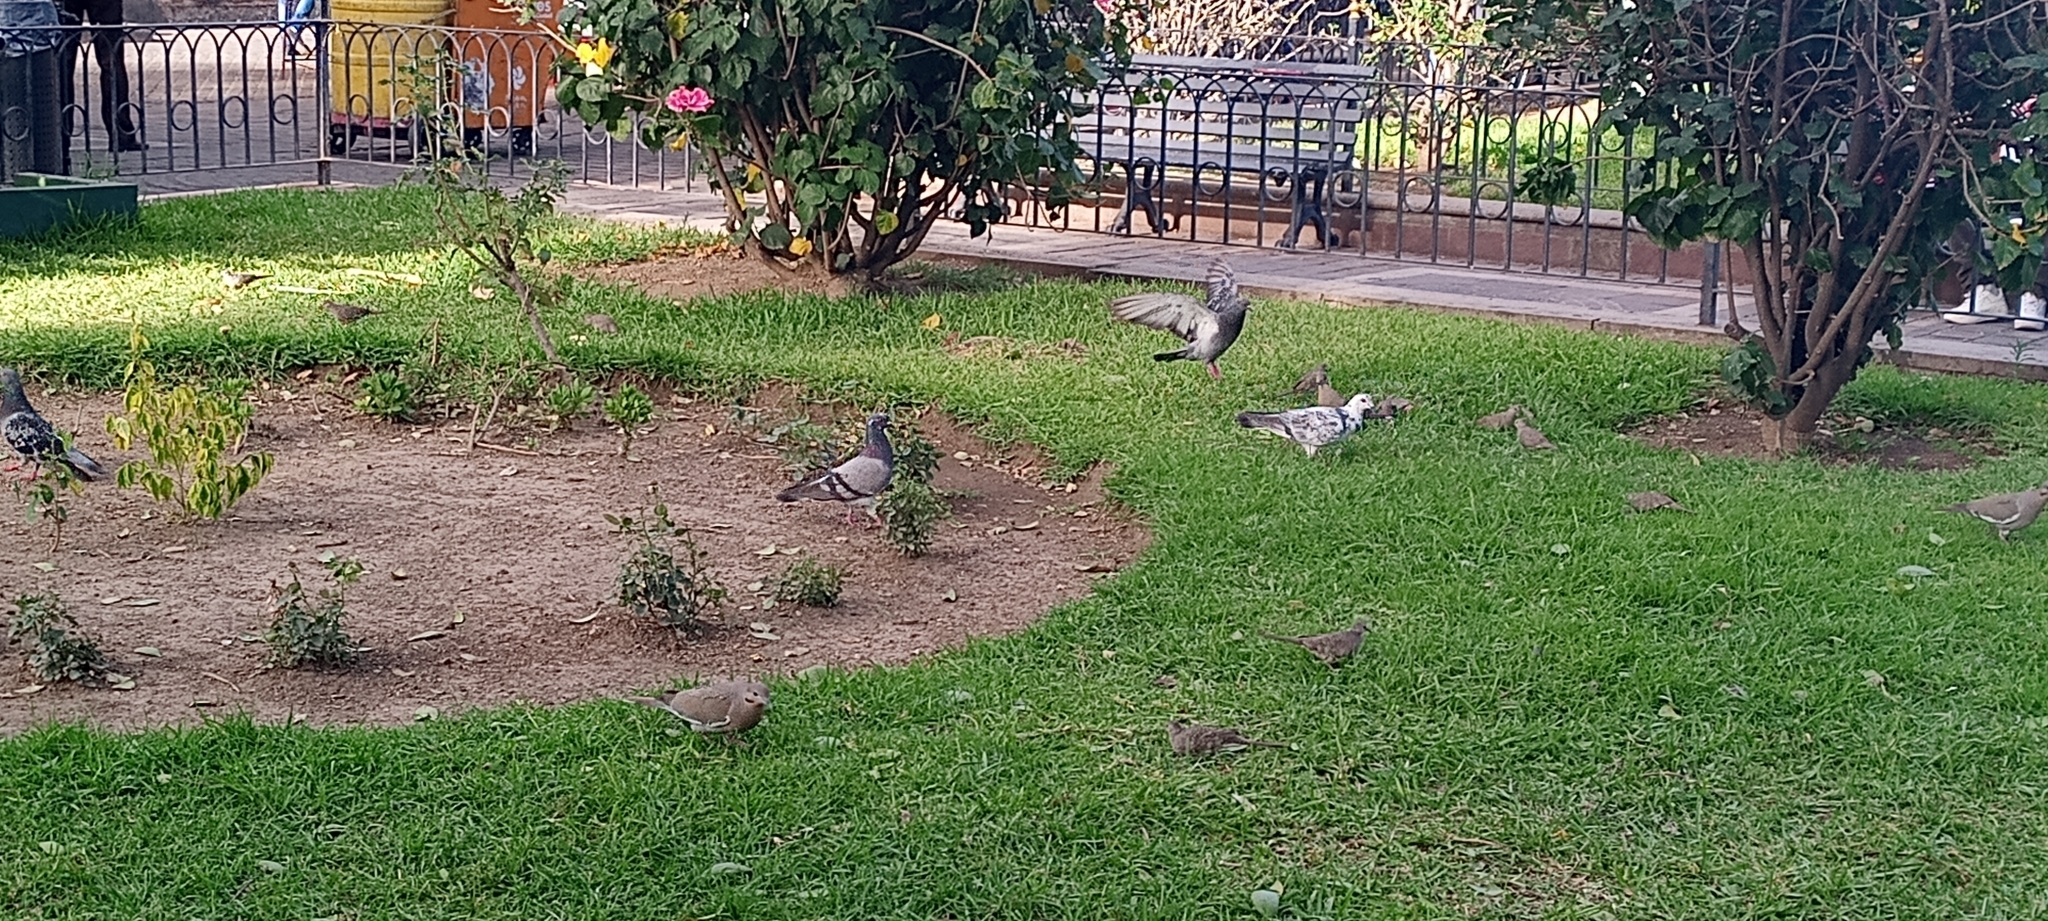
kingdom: Animalia
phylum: Chordata
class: Aves
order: Columbiformes
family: Columbidae
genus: Zenaida
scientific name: Zenaida asiatica
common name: White-winged dove
